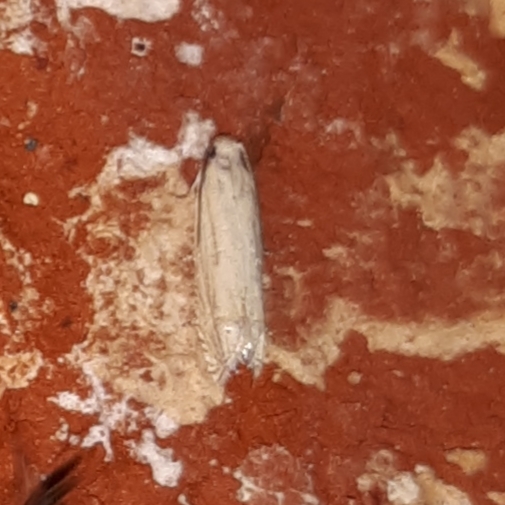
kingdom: Animalia
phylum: Arthropoda
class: Insecta
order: Lepidoptera
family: Tortricidae
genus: Pelochrista
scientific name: Pelochrista argentialbana
